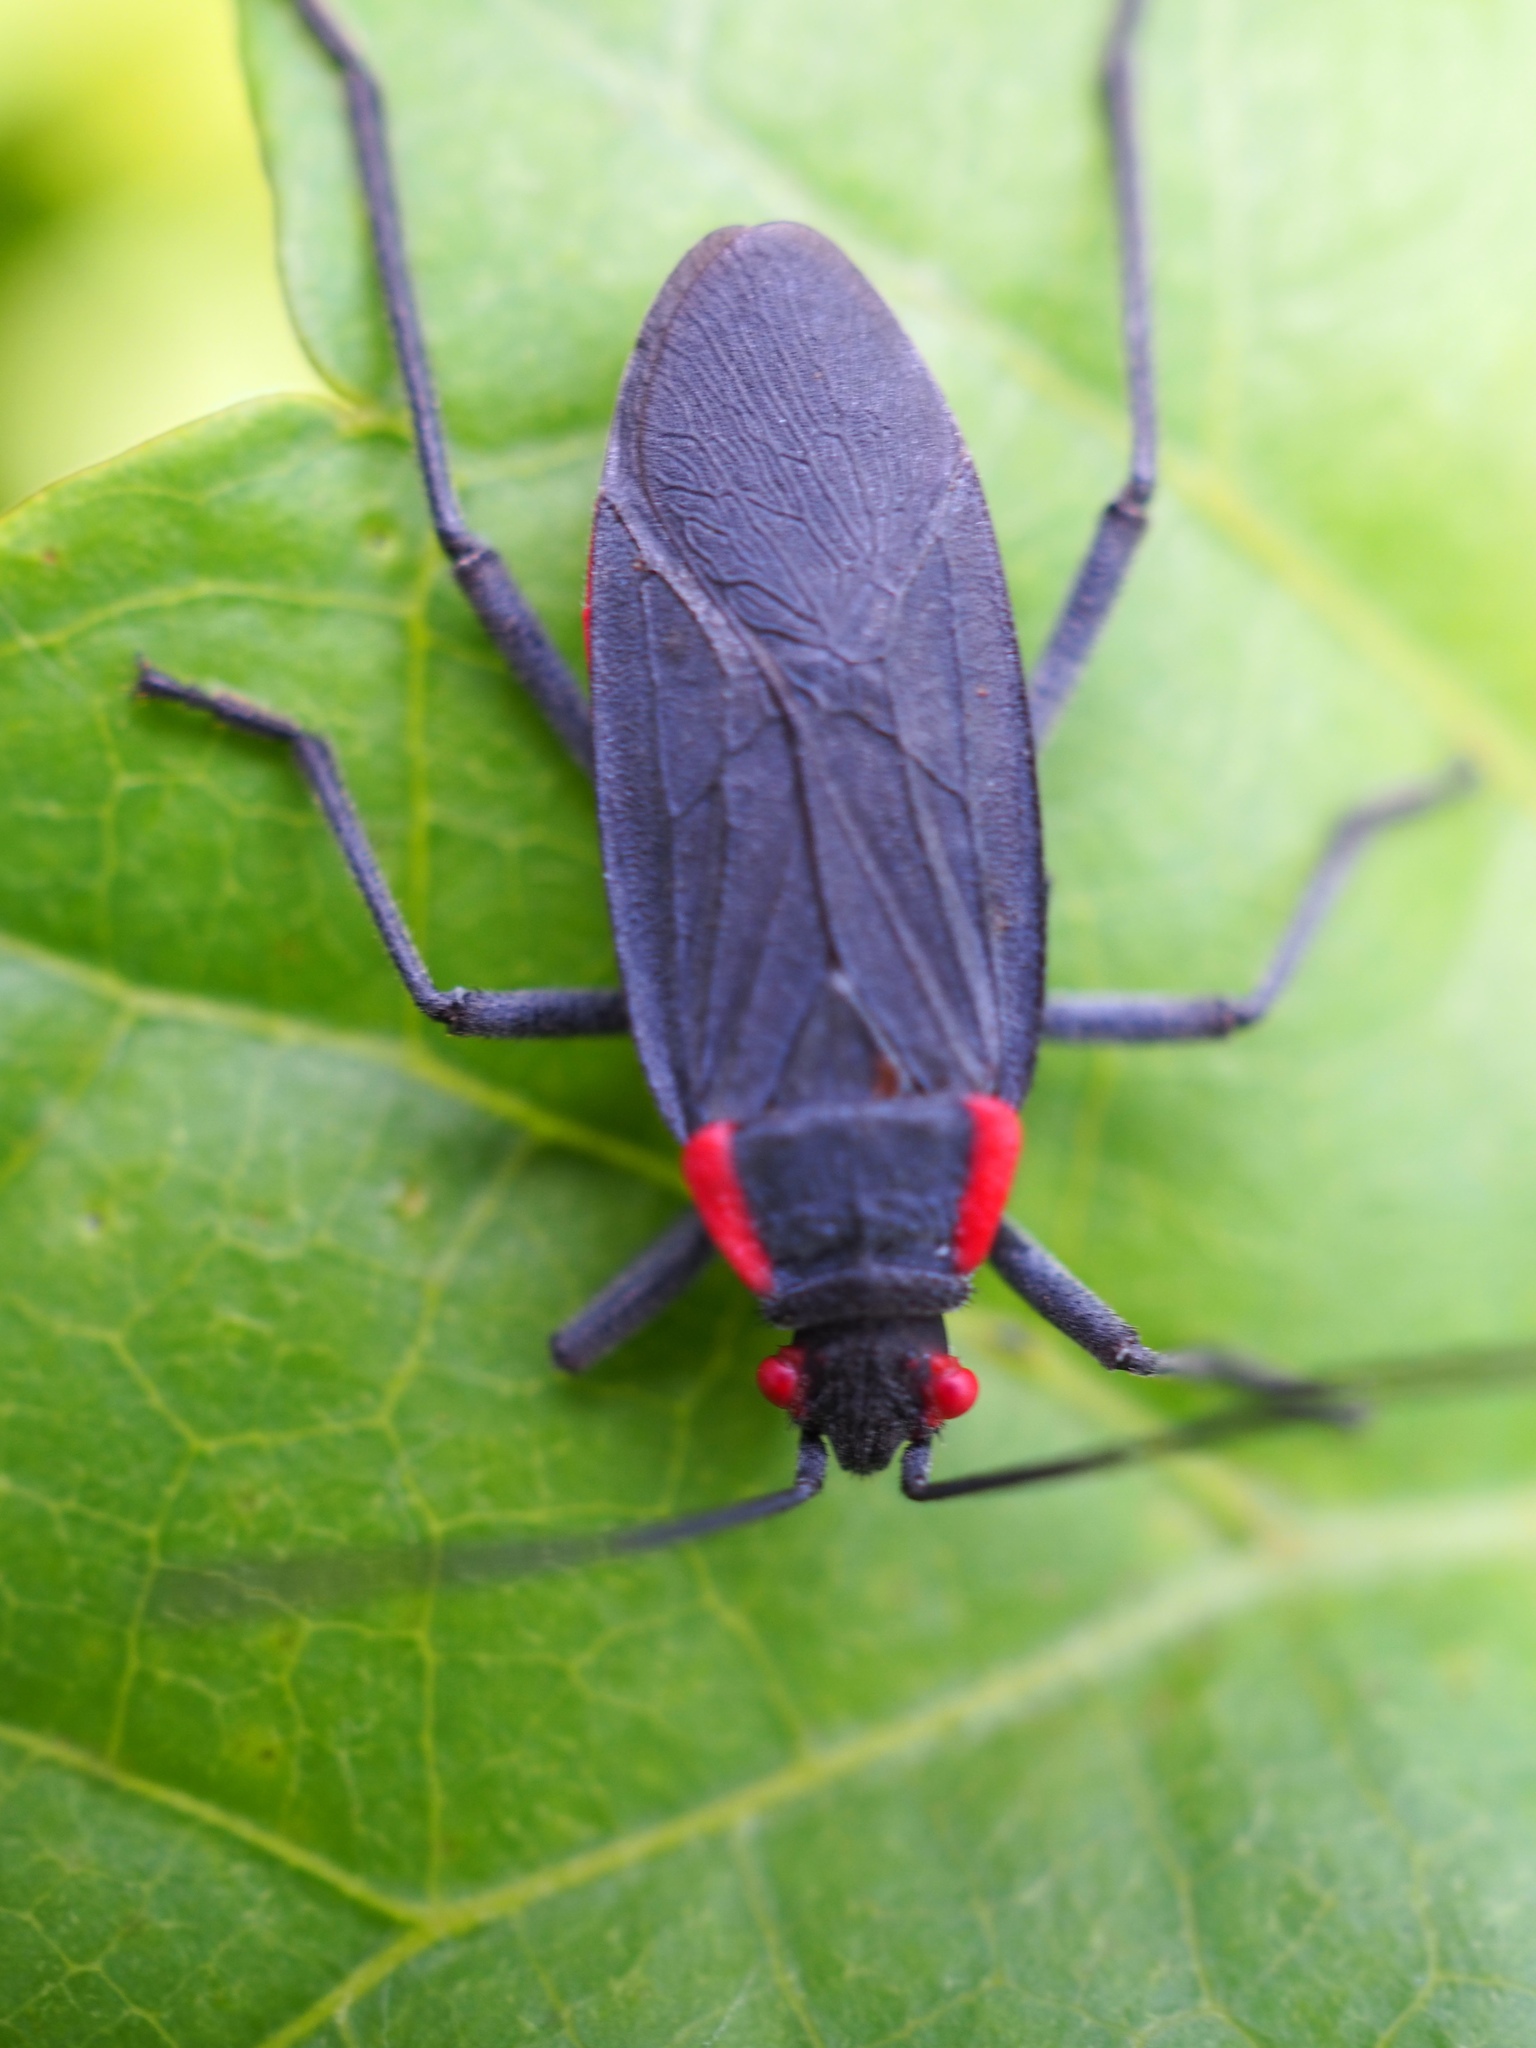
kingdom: Animalia
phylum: Arthropoda
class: Insecta
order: Hemiptera
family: Rhopalidae
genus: Jadera
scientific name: Jadera haematoloma
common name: Red-shouldered bug
